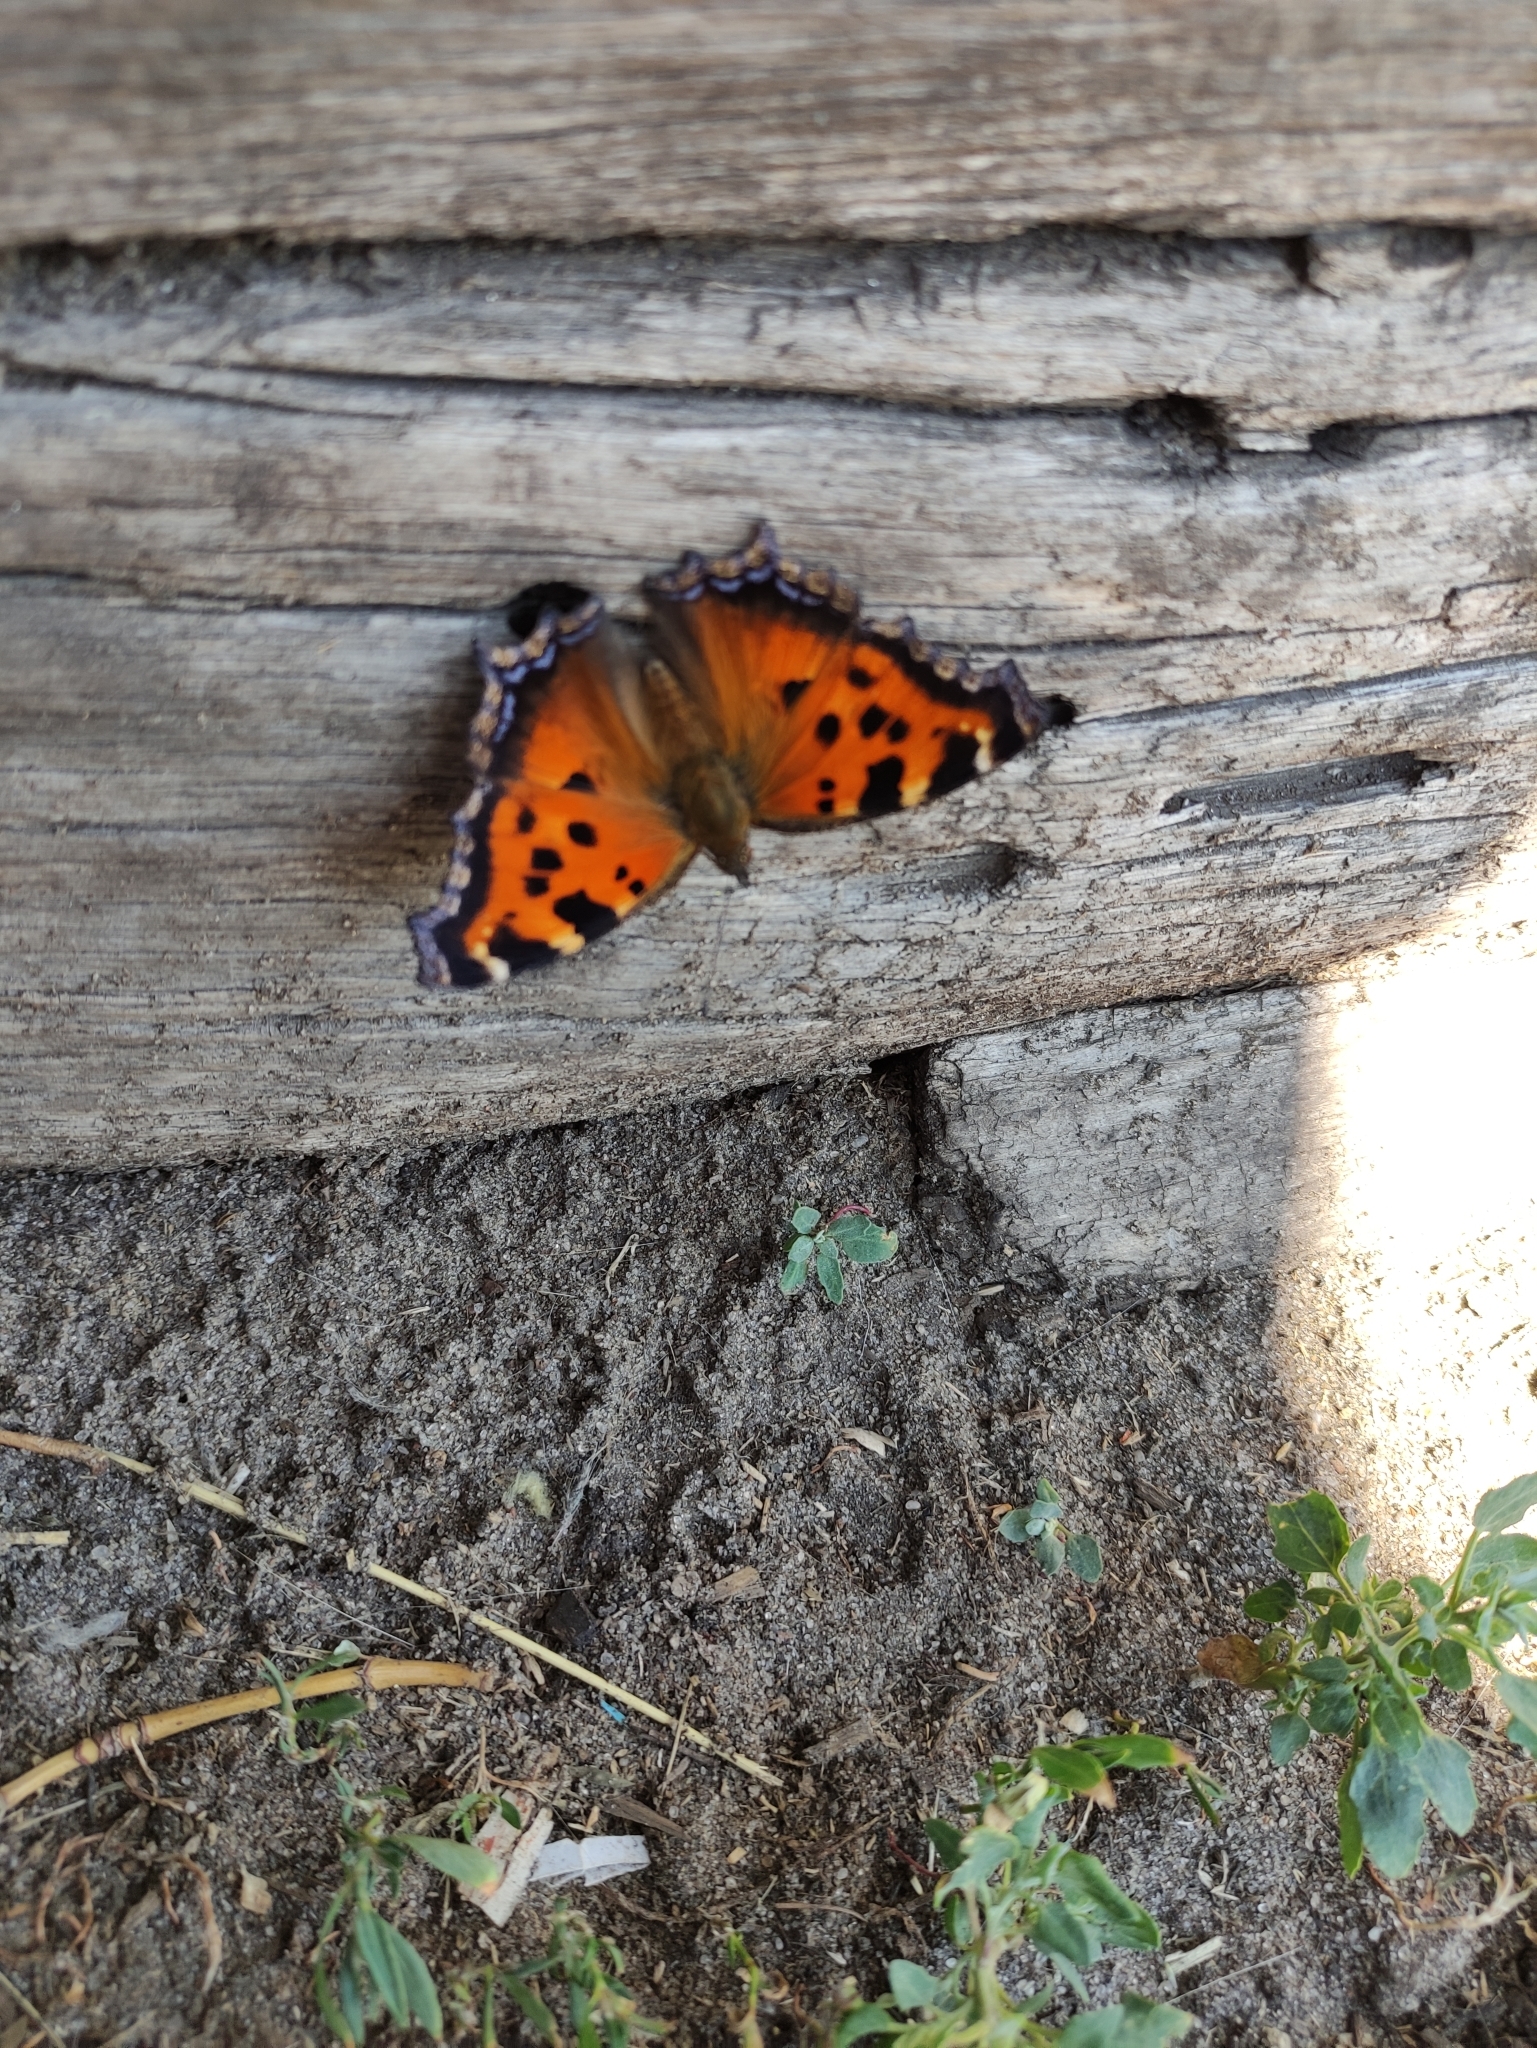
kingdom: Animalia
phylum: Arthropoda
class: Insecta
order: Lepidoptera
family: Nymphalidae
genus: Nymphalis
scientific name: Nymphalis xanthomelas
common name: Scarce tortoiseshell
